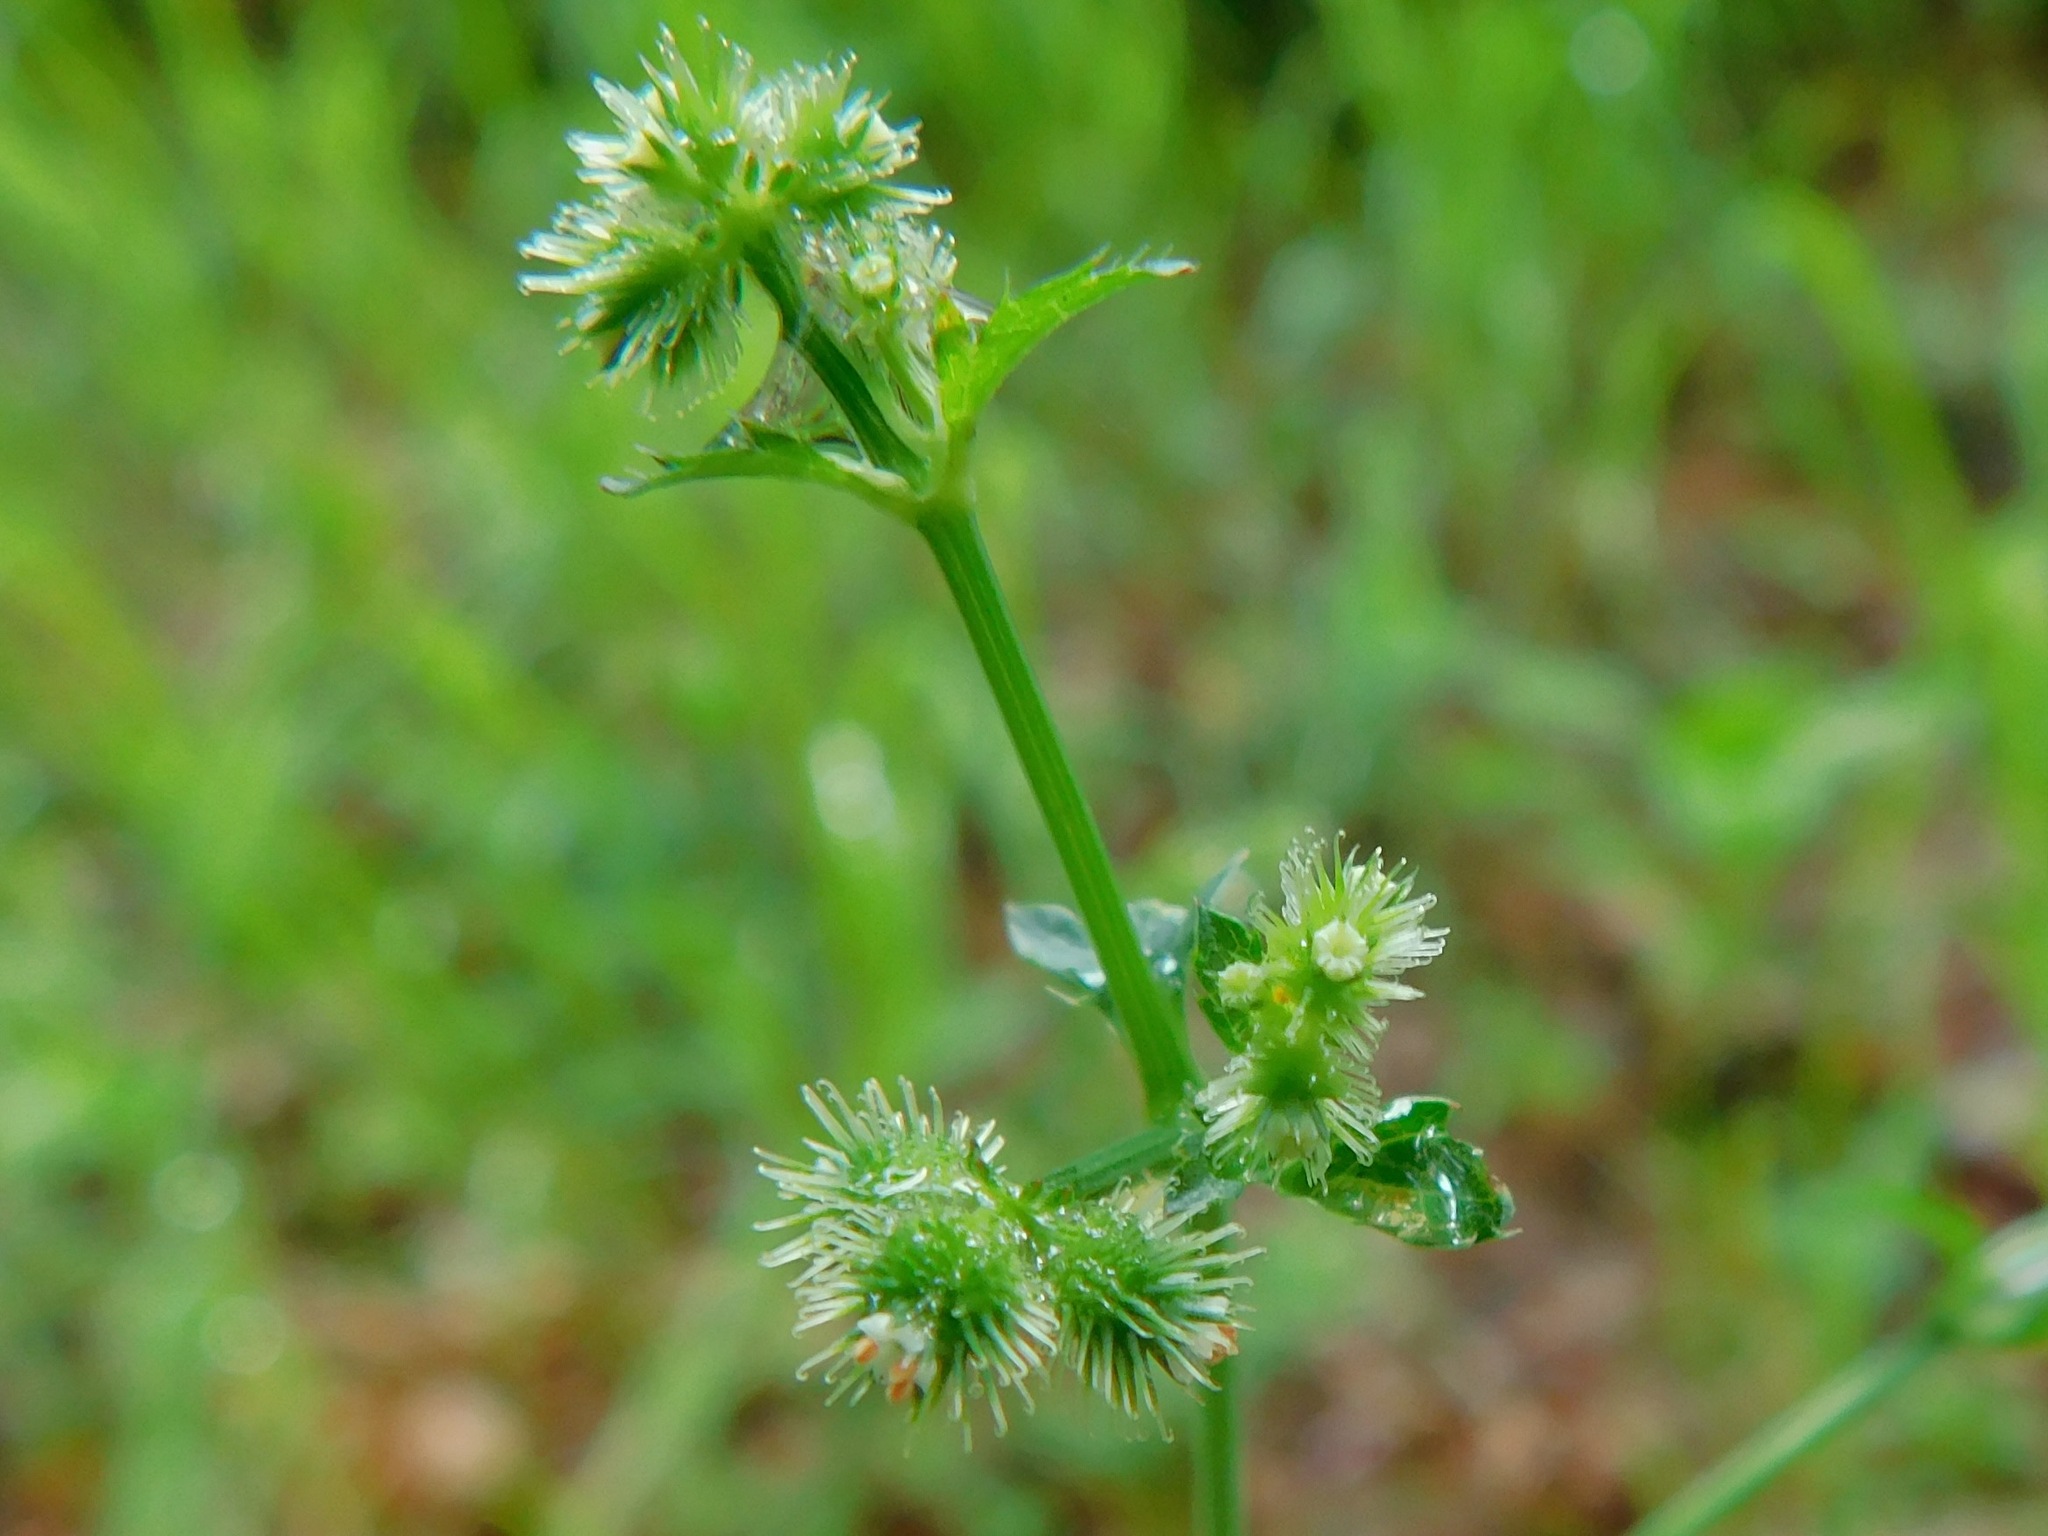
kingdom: Plantae
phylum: Tracheophyta
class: Magnoliopsida
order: Apiales
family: Apiaceae
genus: Sanicula
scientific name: Sanicula canadensis
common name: Canada sanicle
